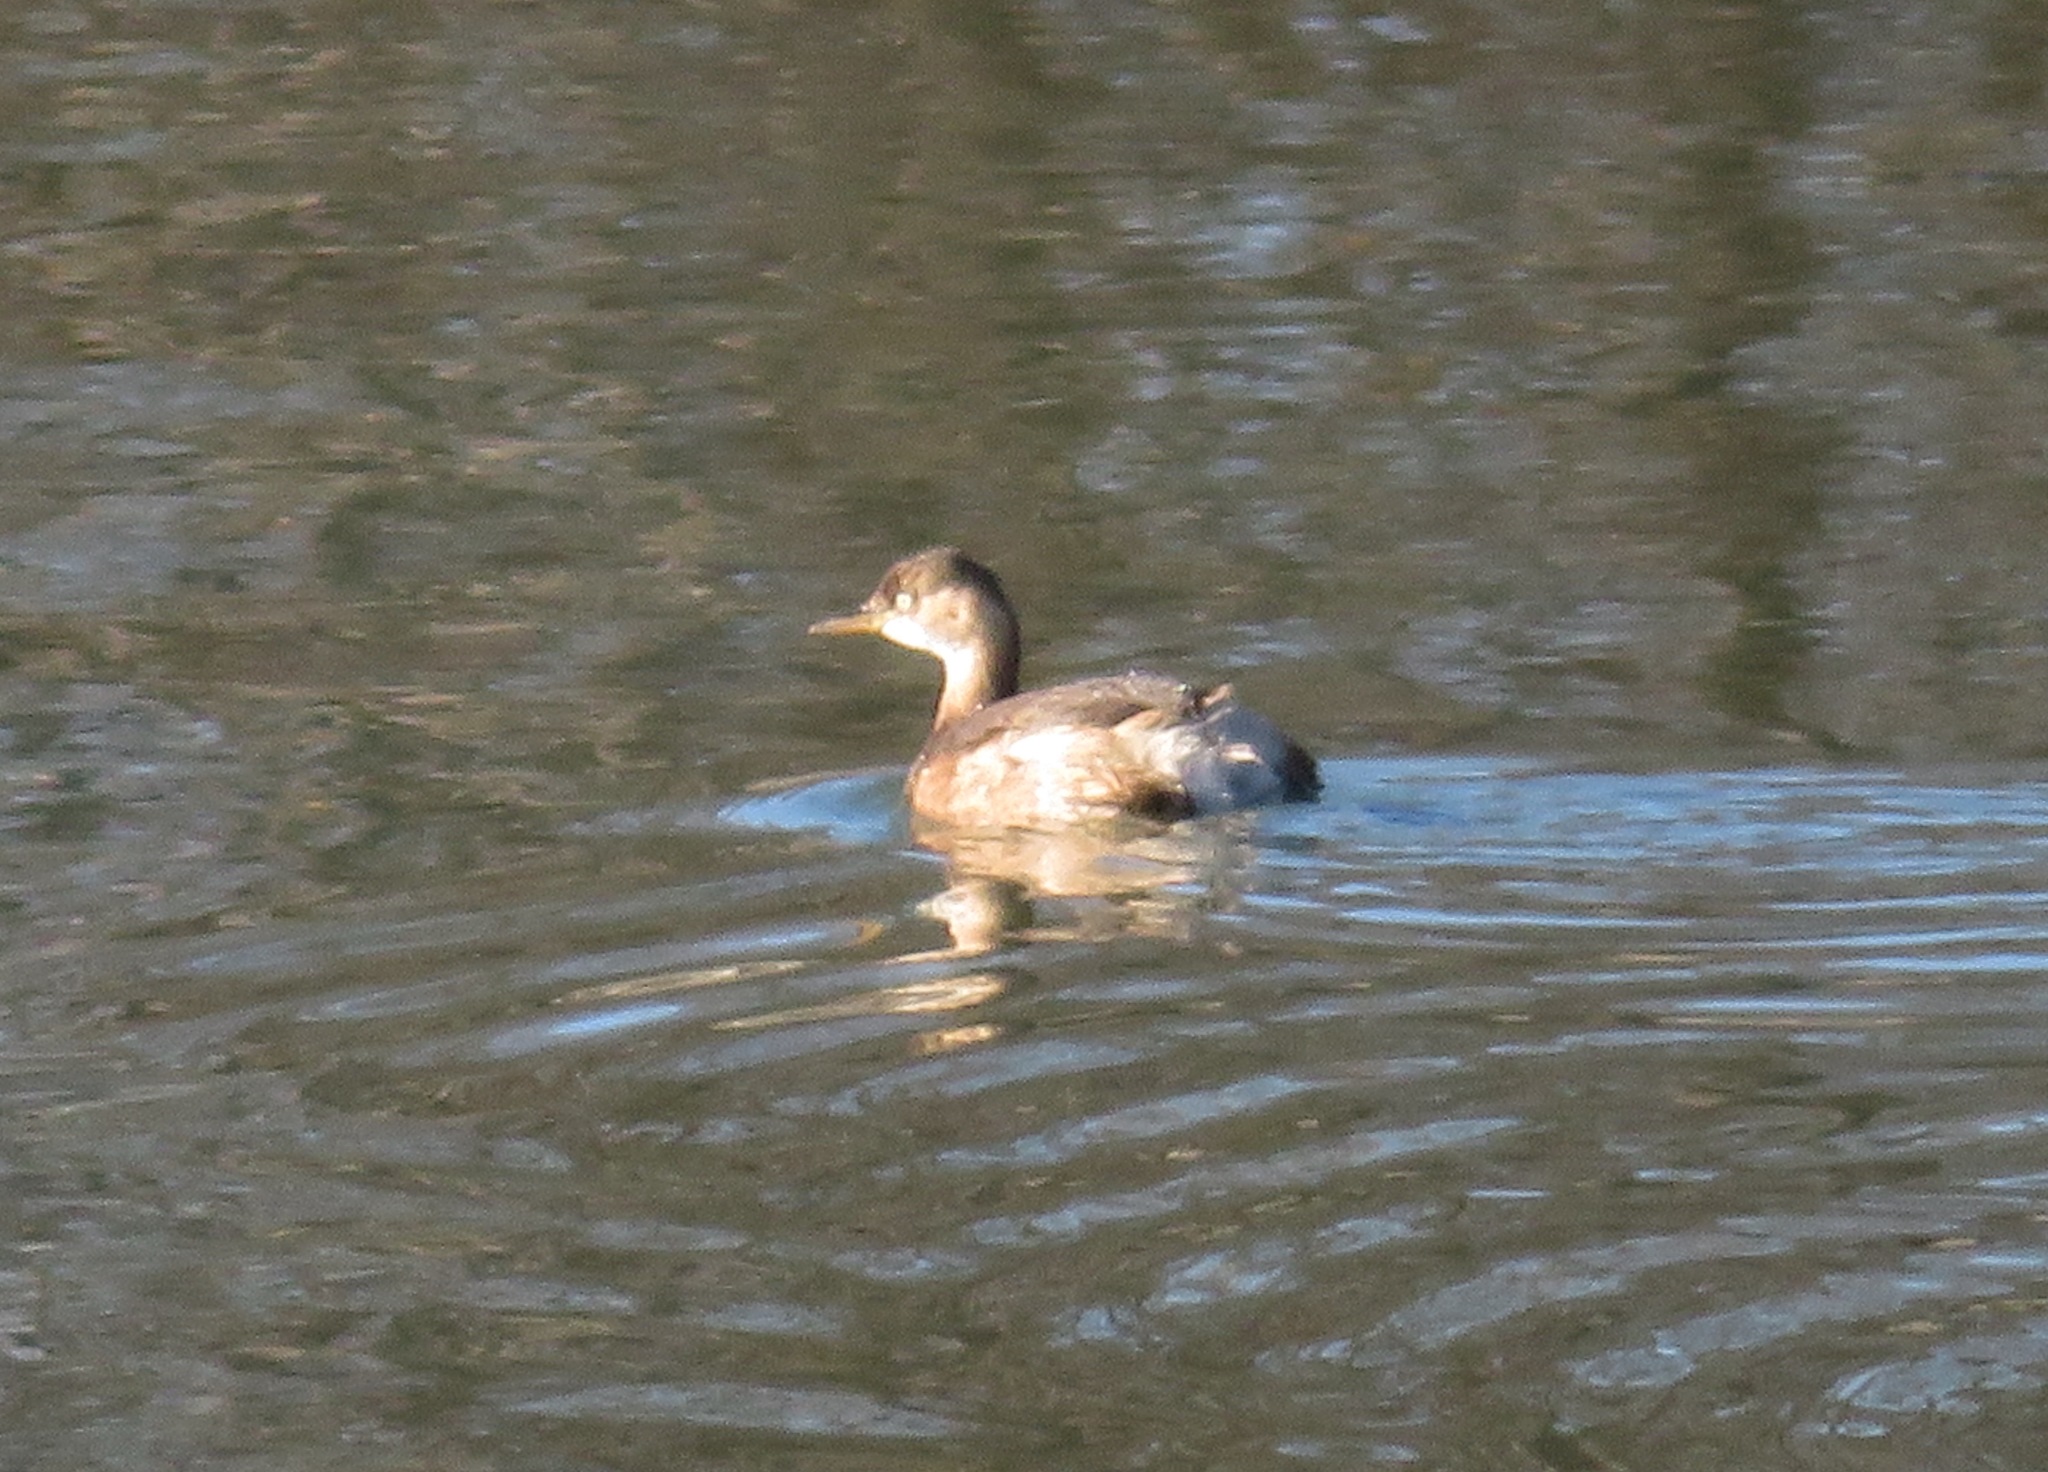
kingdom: Animalia
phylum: Chordata
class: Aves
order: Podicipediformes
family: Podicipedidae
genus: Tachybaptus
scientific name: Tachybaptus ruficollis
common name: Little grebe
